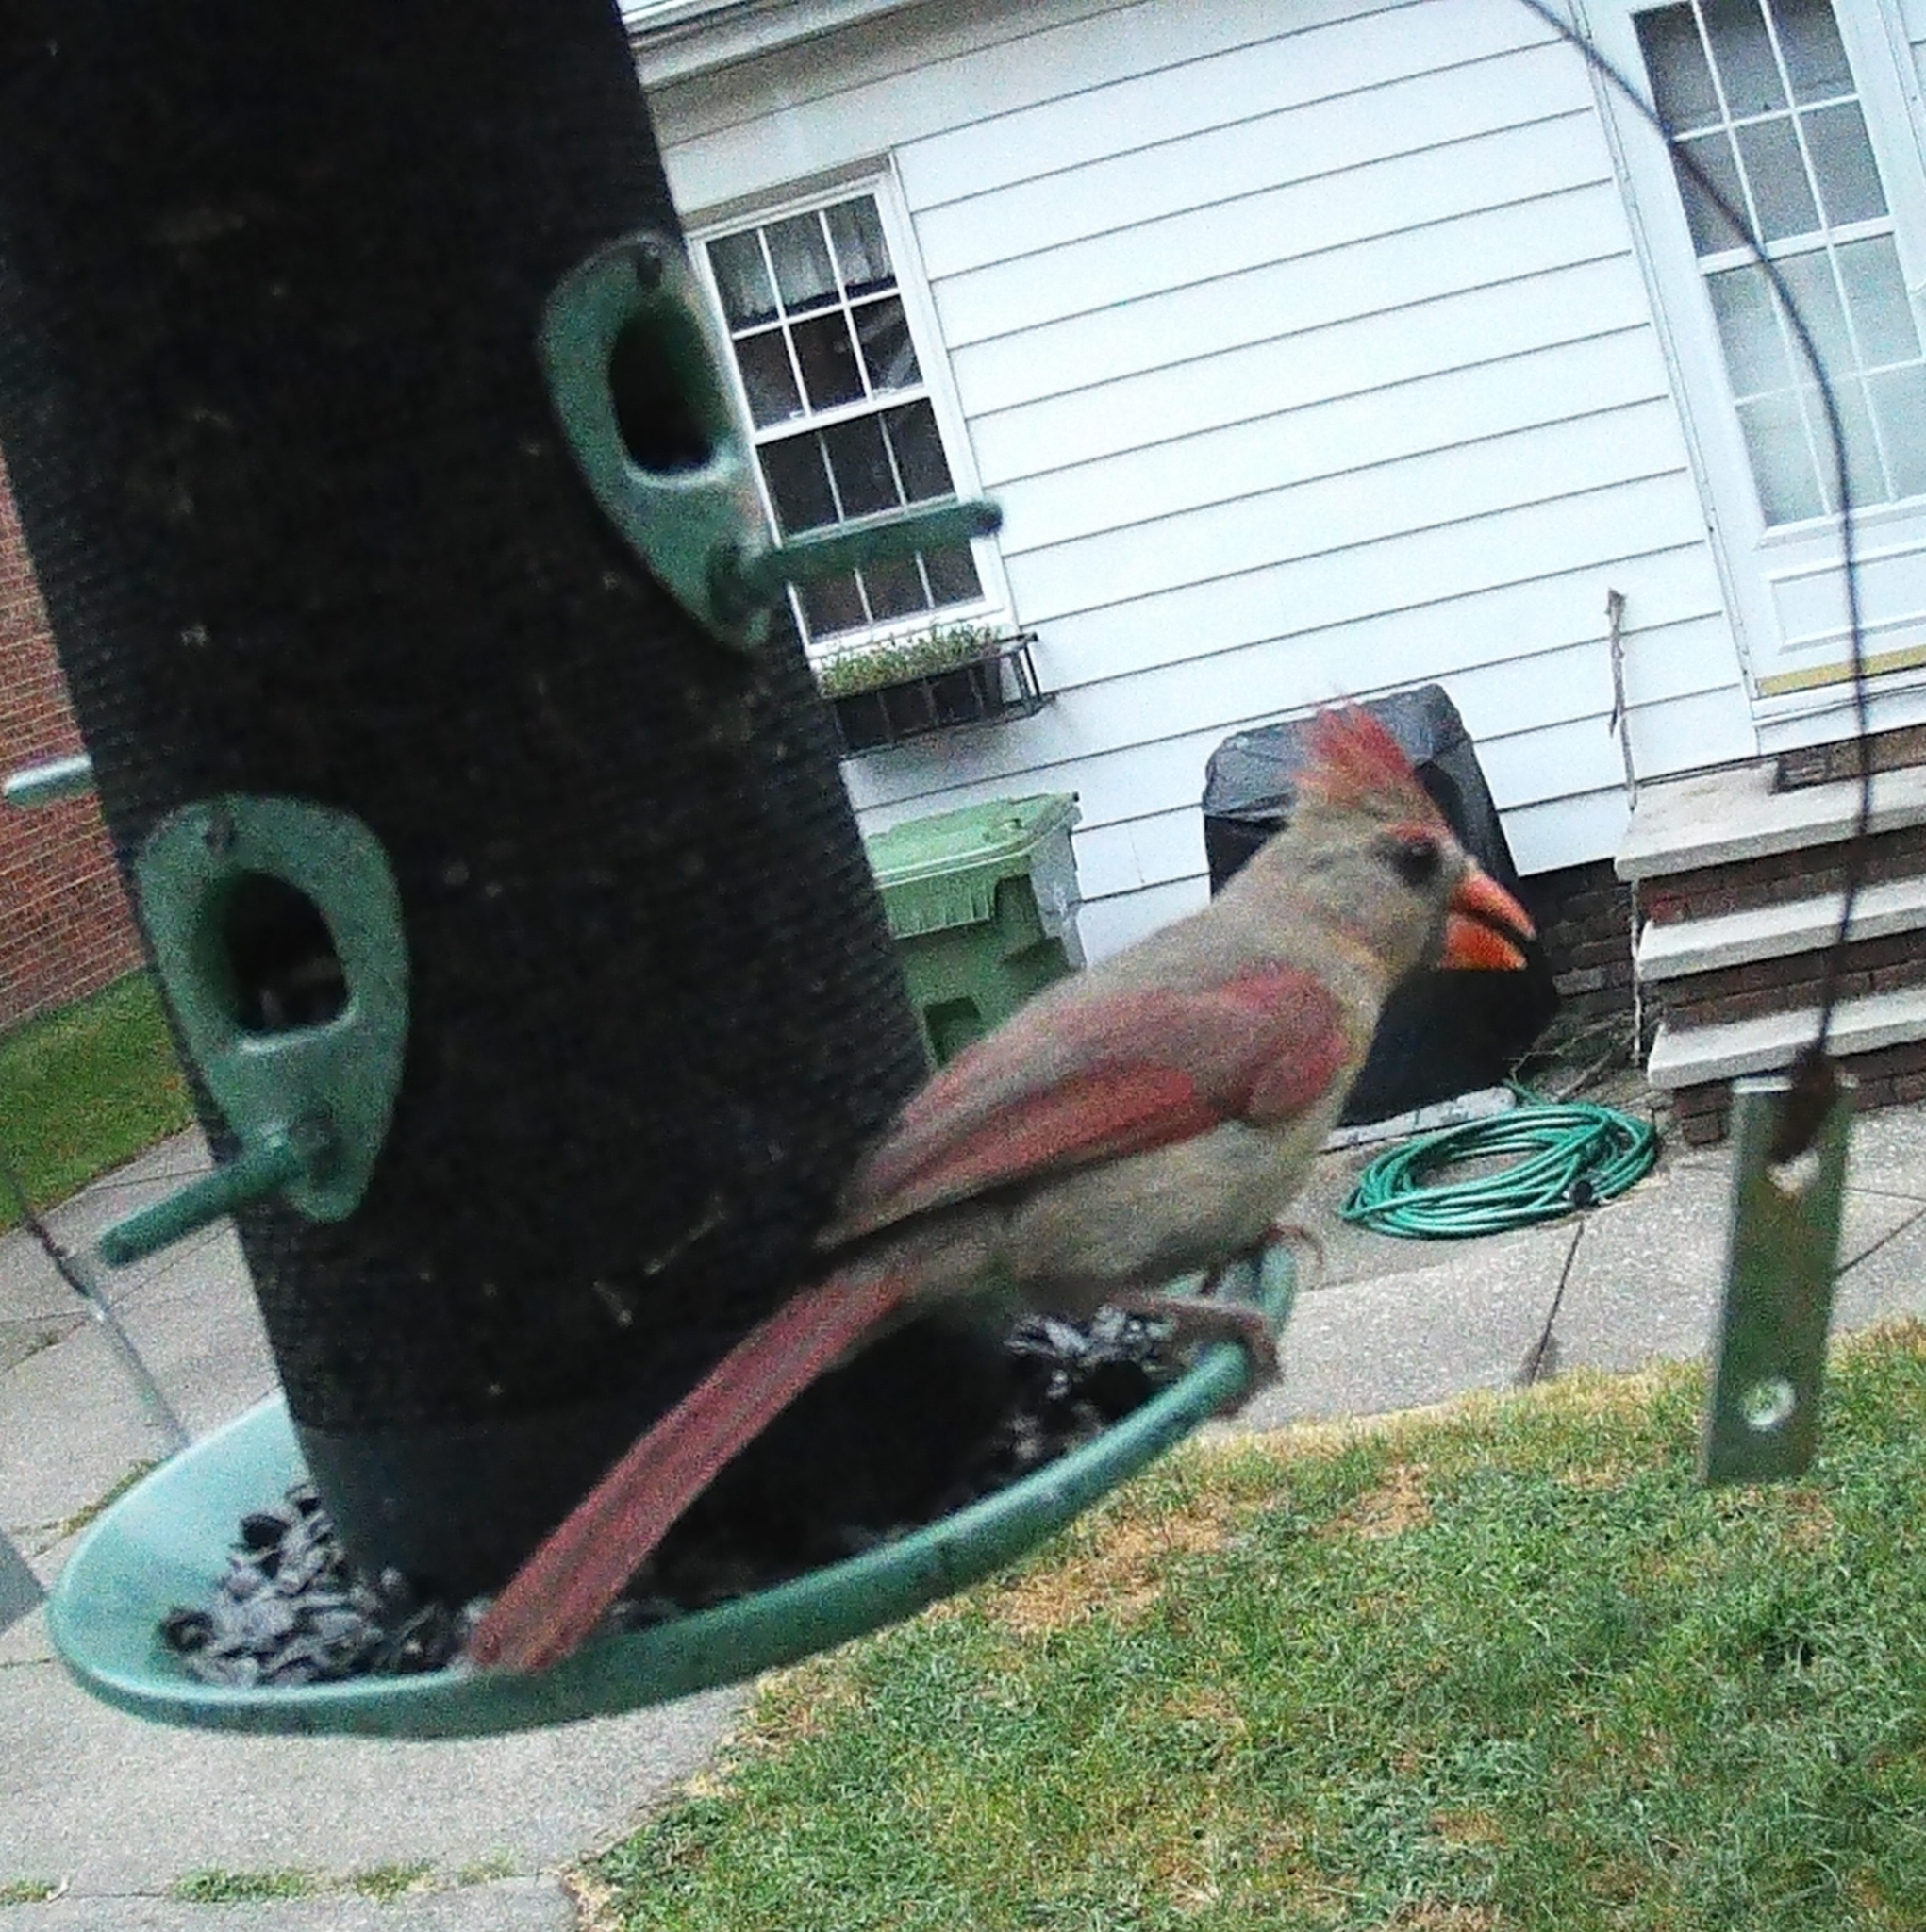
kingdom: Animalia
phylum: Chordata
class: Aves
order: Passeriformes
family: Cardinalidae
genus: Cardinalis
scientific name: Cardinalis cardinalis
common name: Northern cardinal
